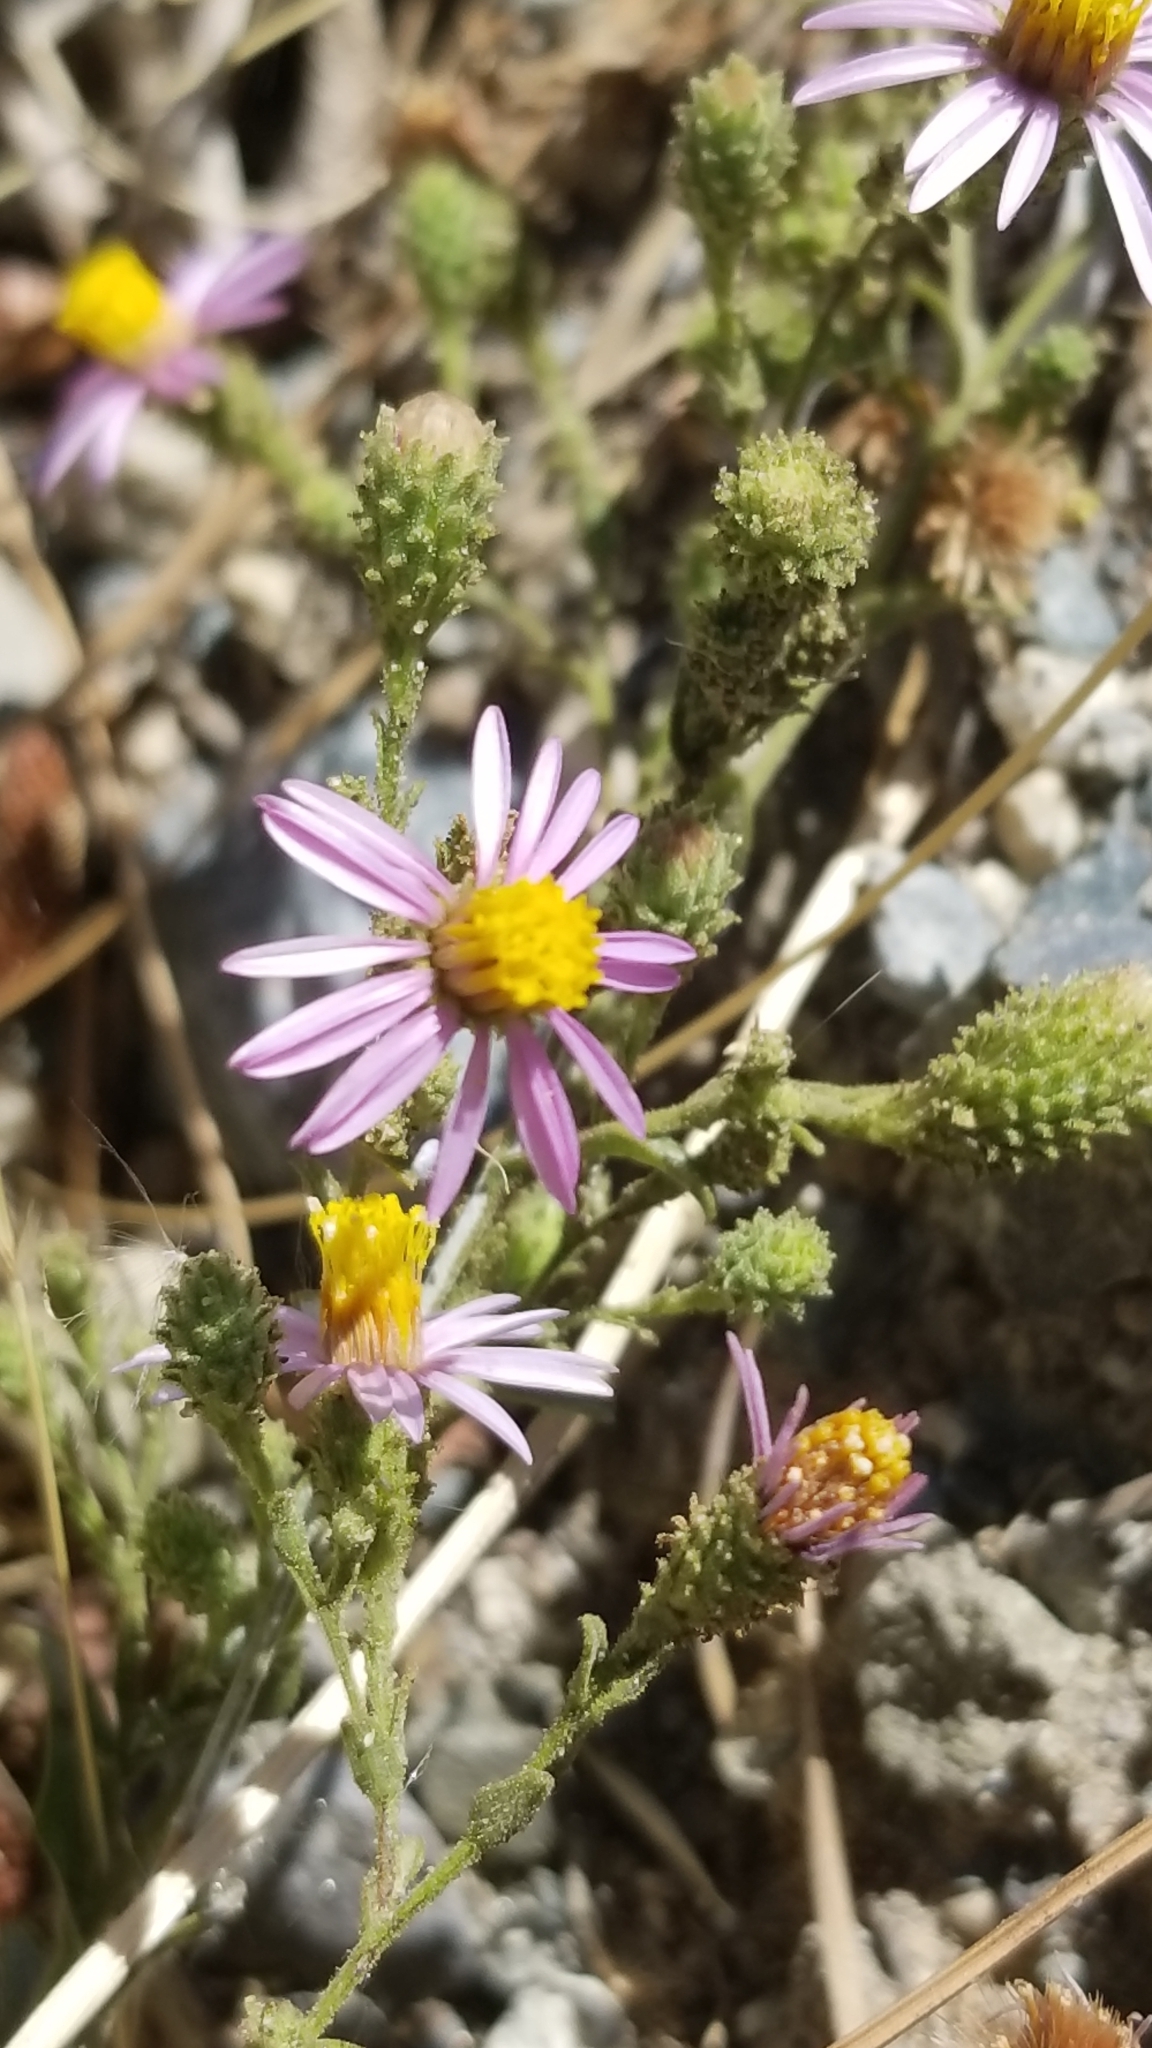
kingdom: Plantae
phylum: Tracheophyta
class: Magnoliopsida
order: Asterales
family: Asteraceae
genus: Corethrogyne
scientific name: Corethrogyne filaginifolia
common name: Sand-aster
